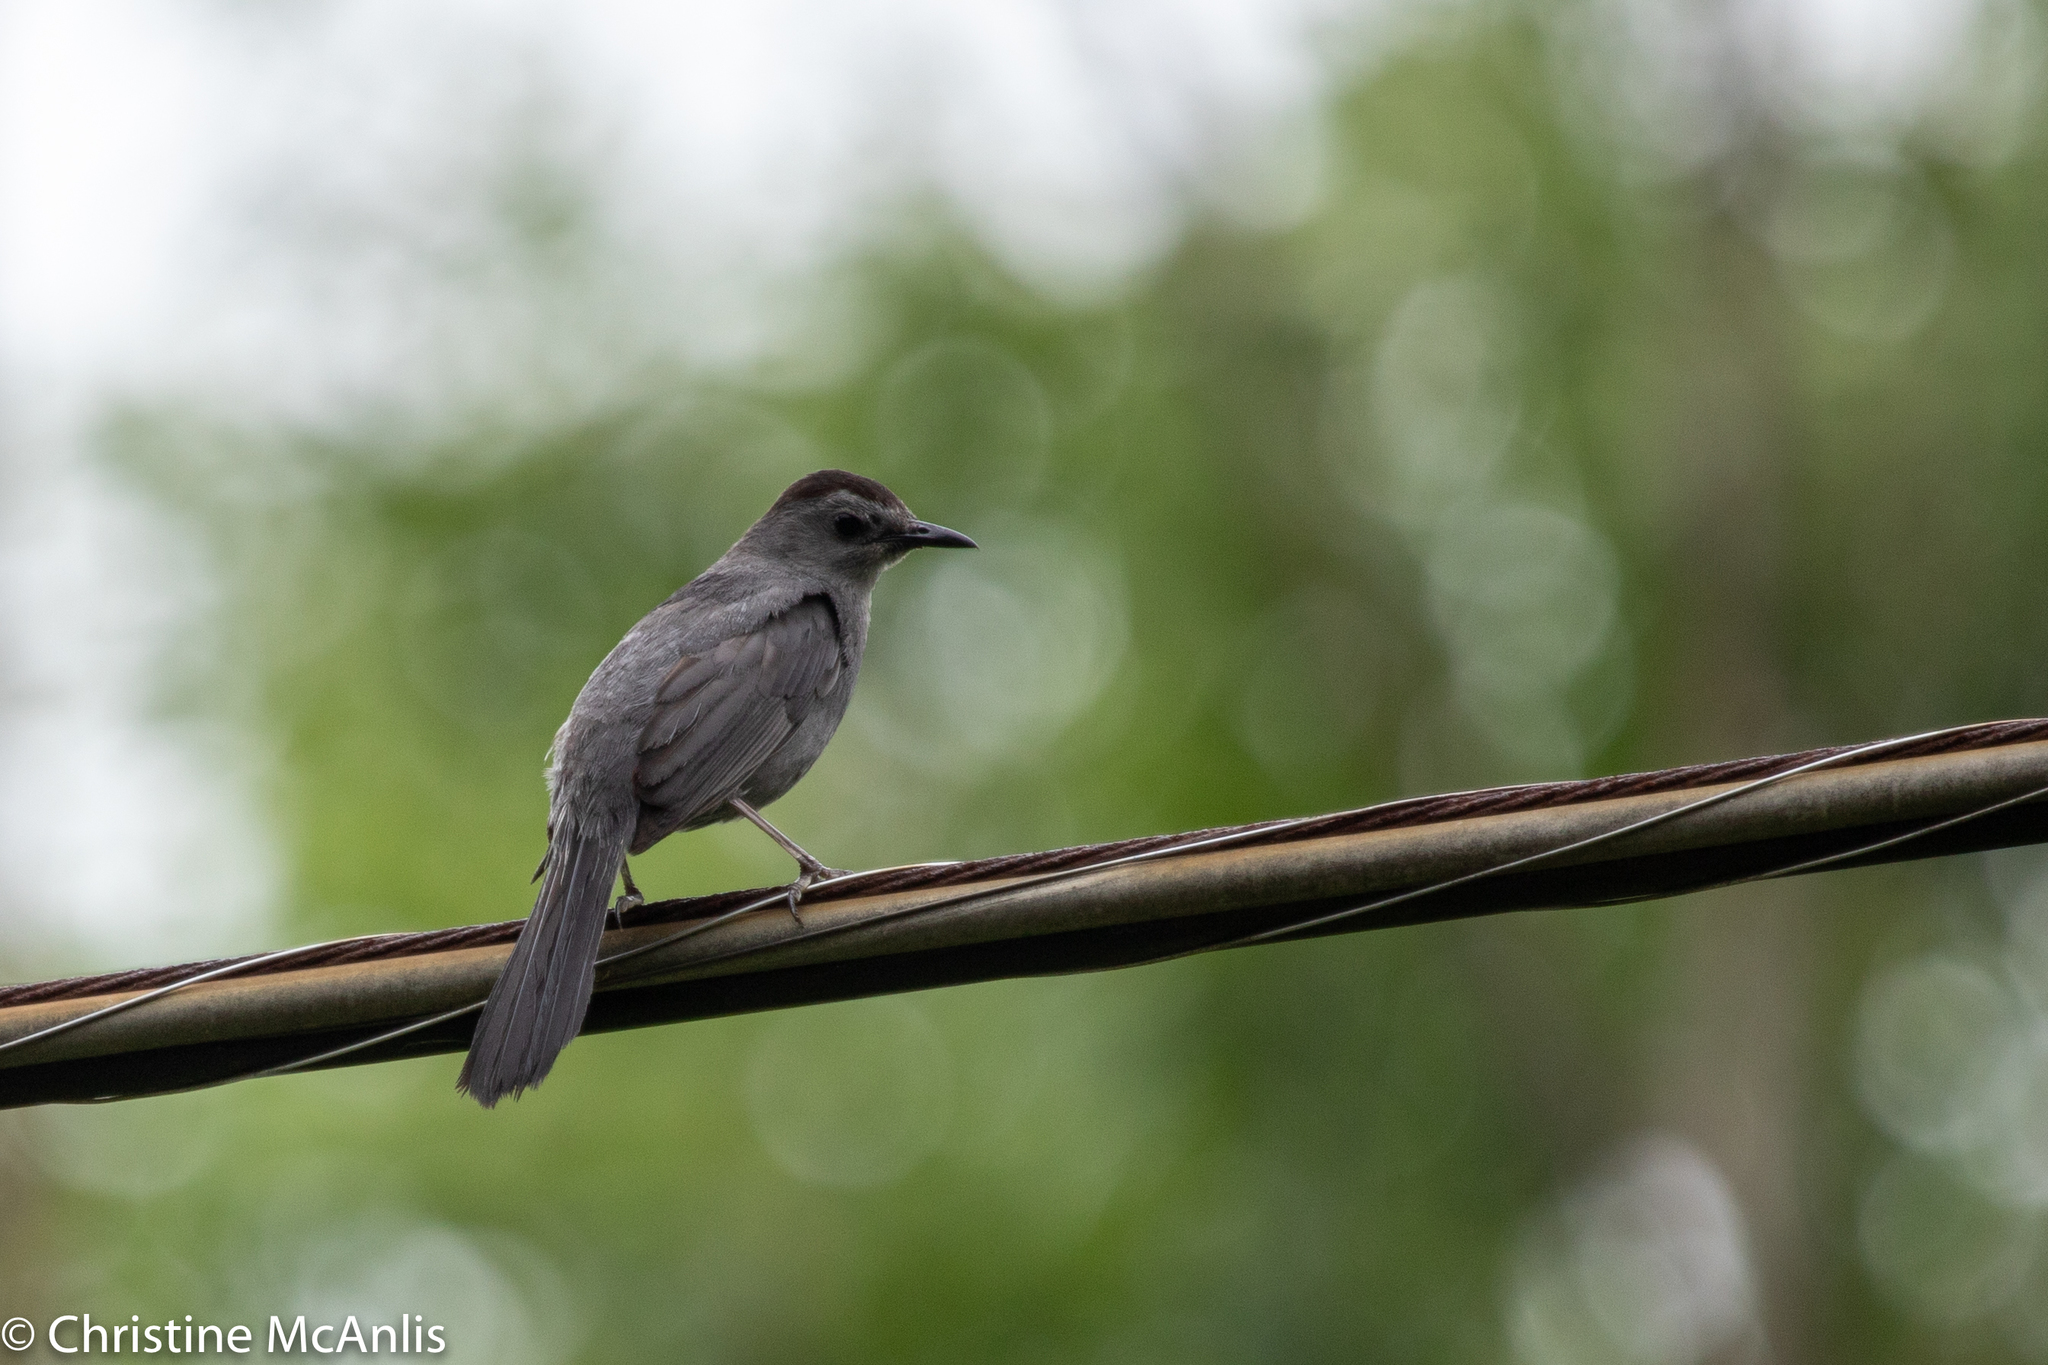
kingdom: Animalia
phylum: Chordata
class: Aves
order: Passeriformes
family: Mimidae
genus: Dumetella
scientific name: Dumetella carolinensis
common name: Gray catbird
